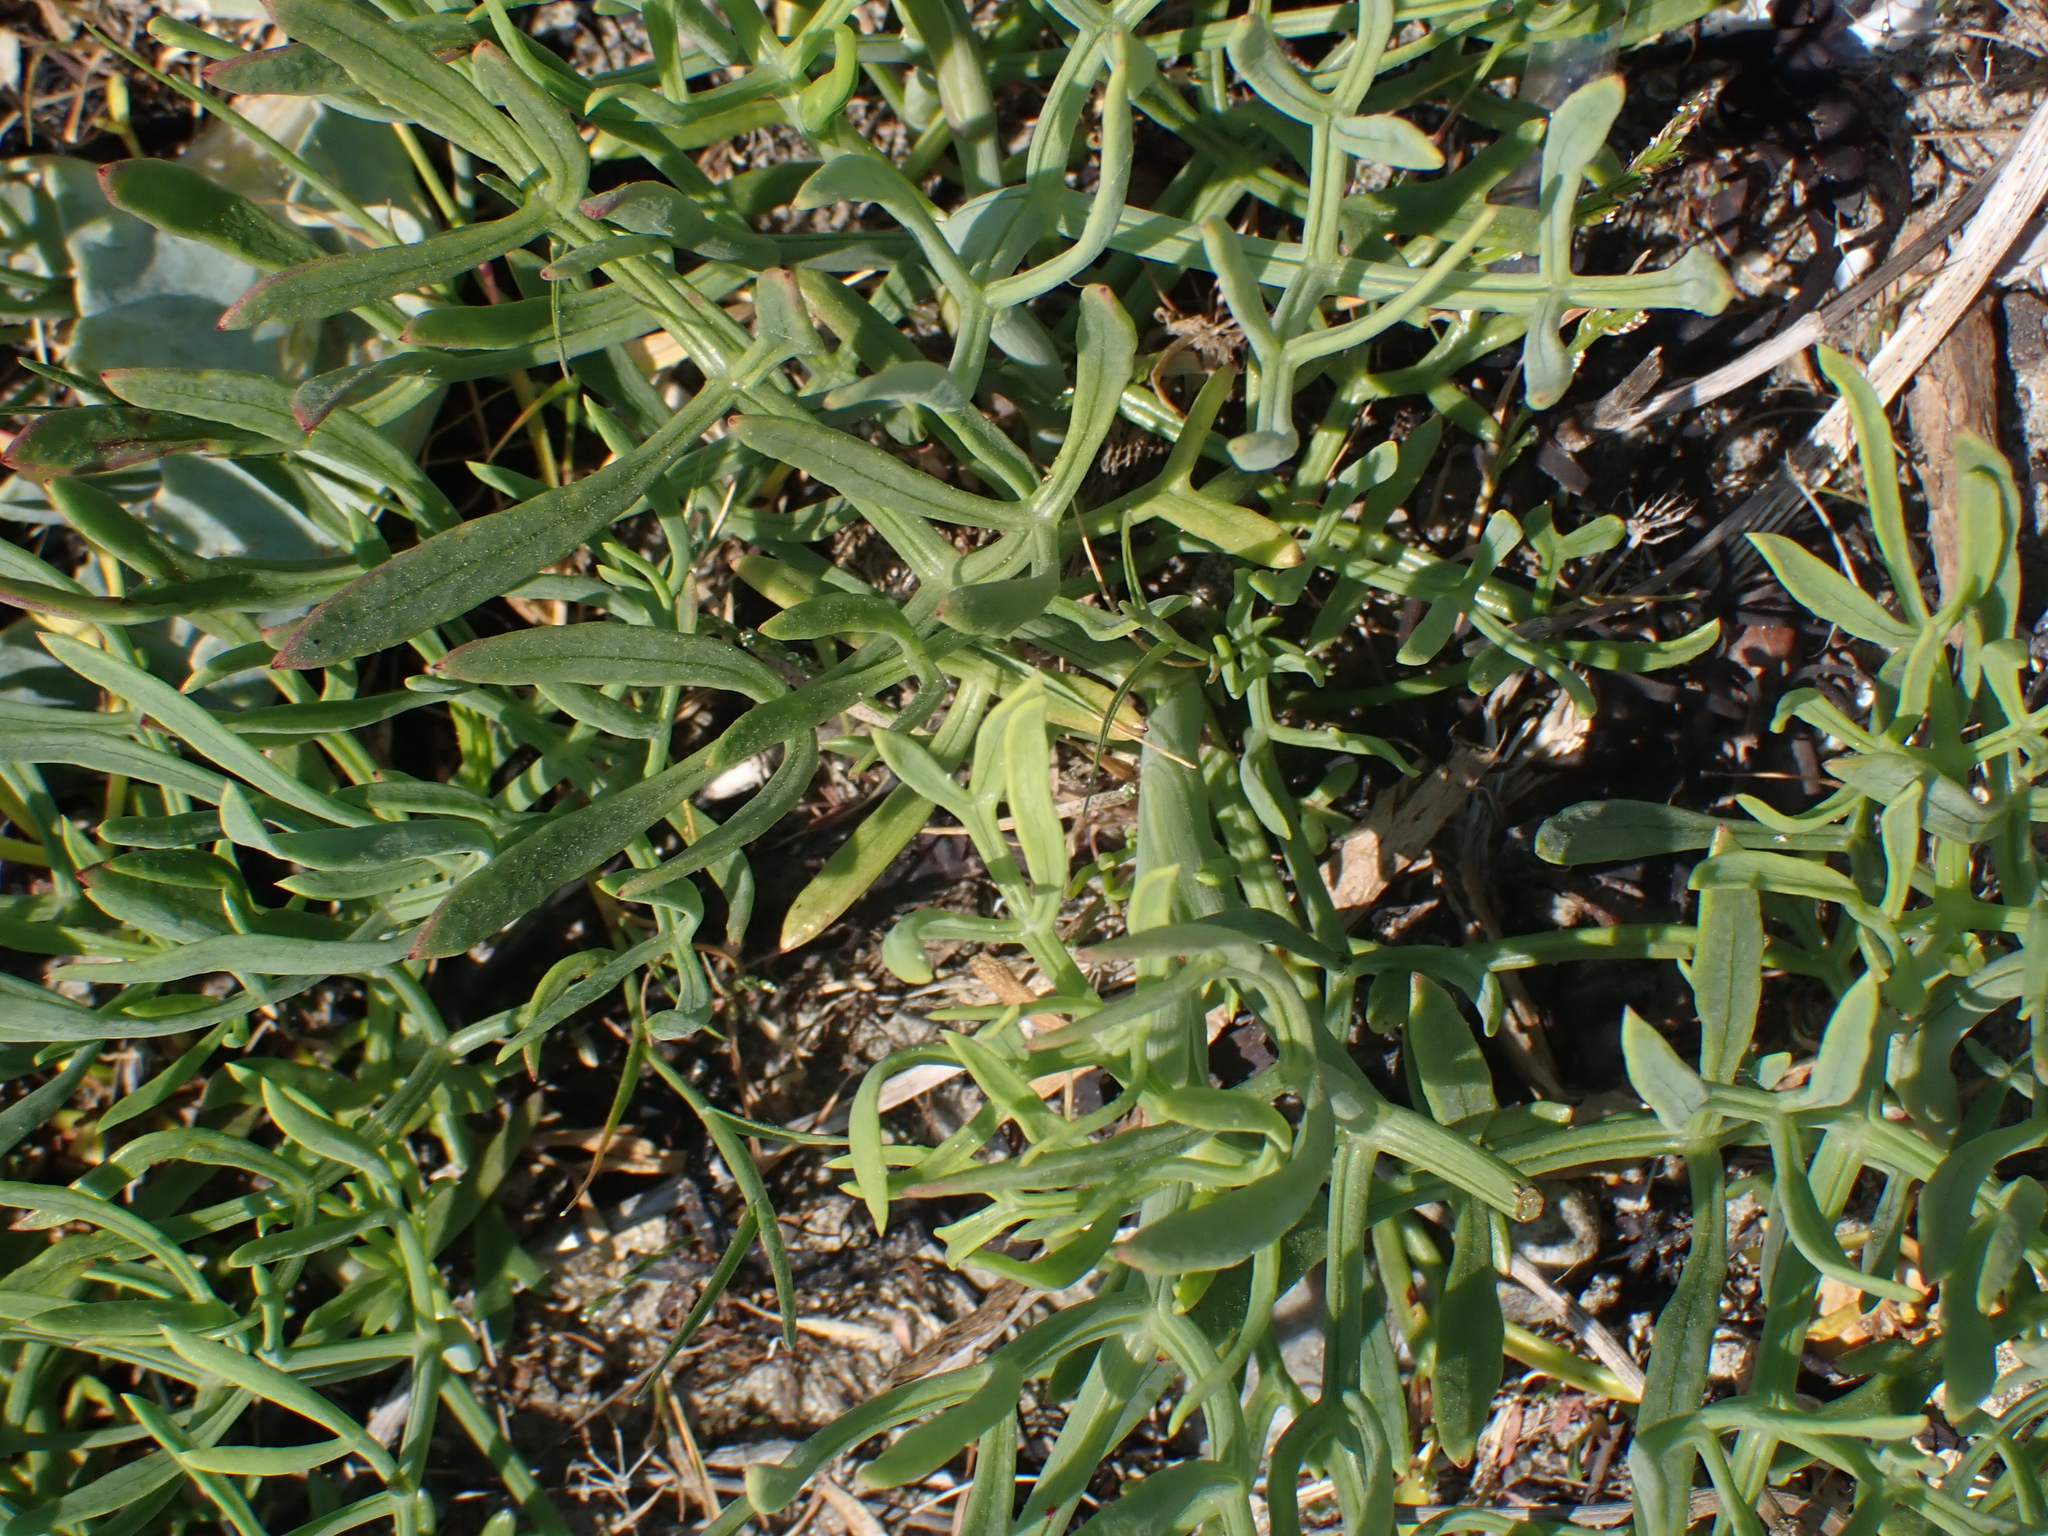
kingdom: Plantae
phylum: Tracheophyta
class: Magnoliopsida
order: Apiales
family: Apiaceae
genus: Crithmum
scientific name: Crithmum maritimum
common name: Rock samphire
